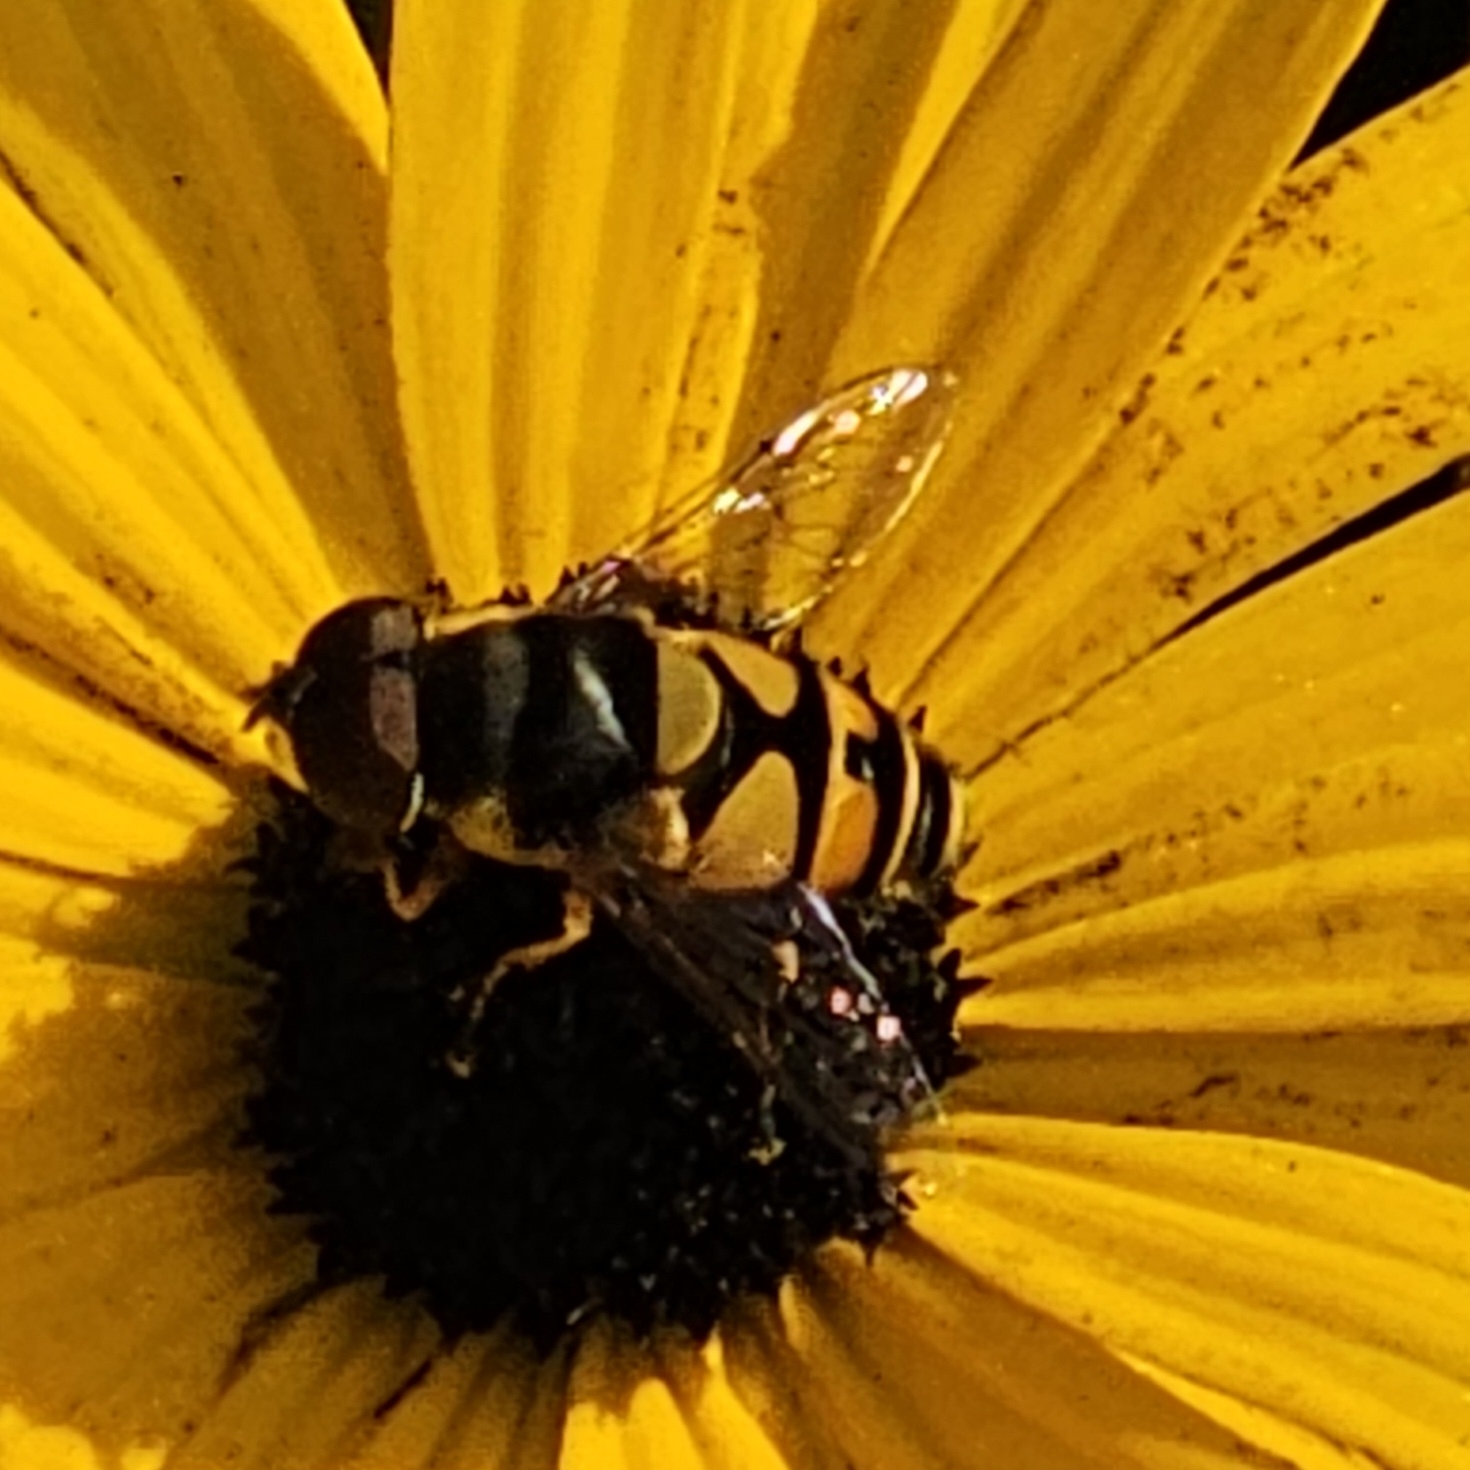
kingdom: Animalia
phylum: Arthropoda
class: Insecta
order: Diptera
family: Syrphidae
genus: Eristalis
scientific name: Eristalis transversa
